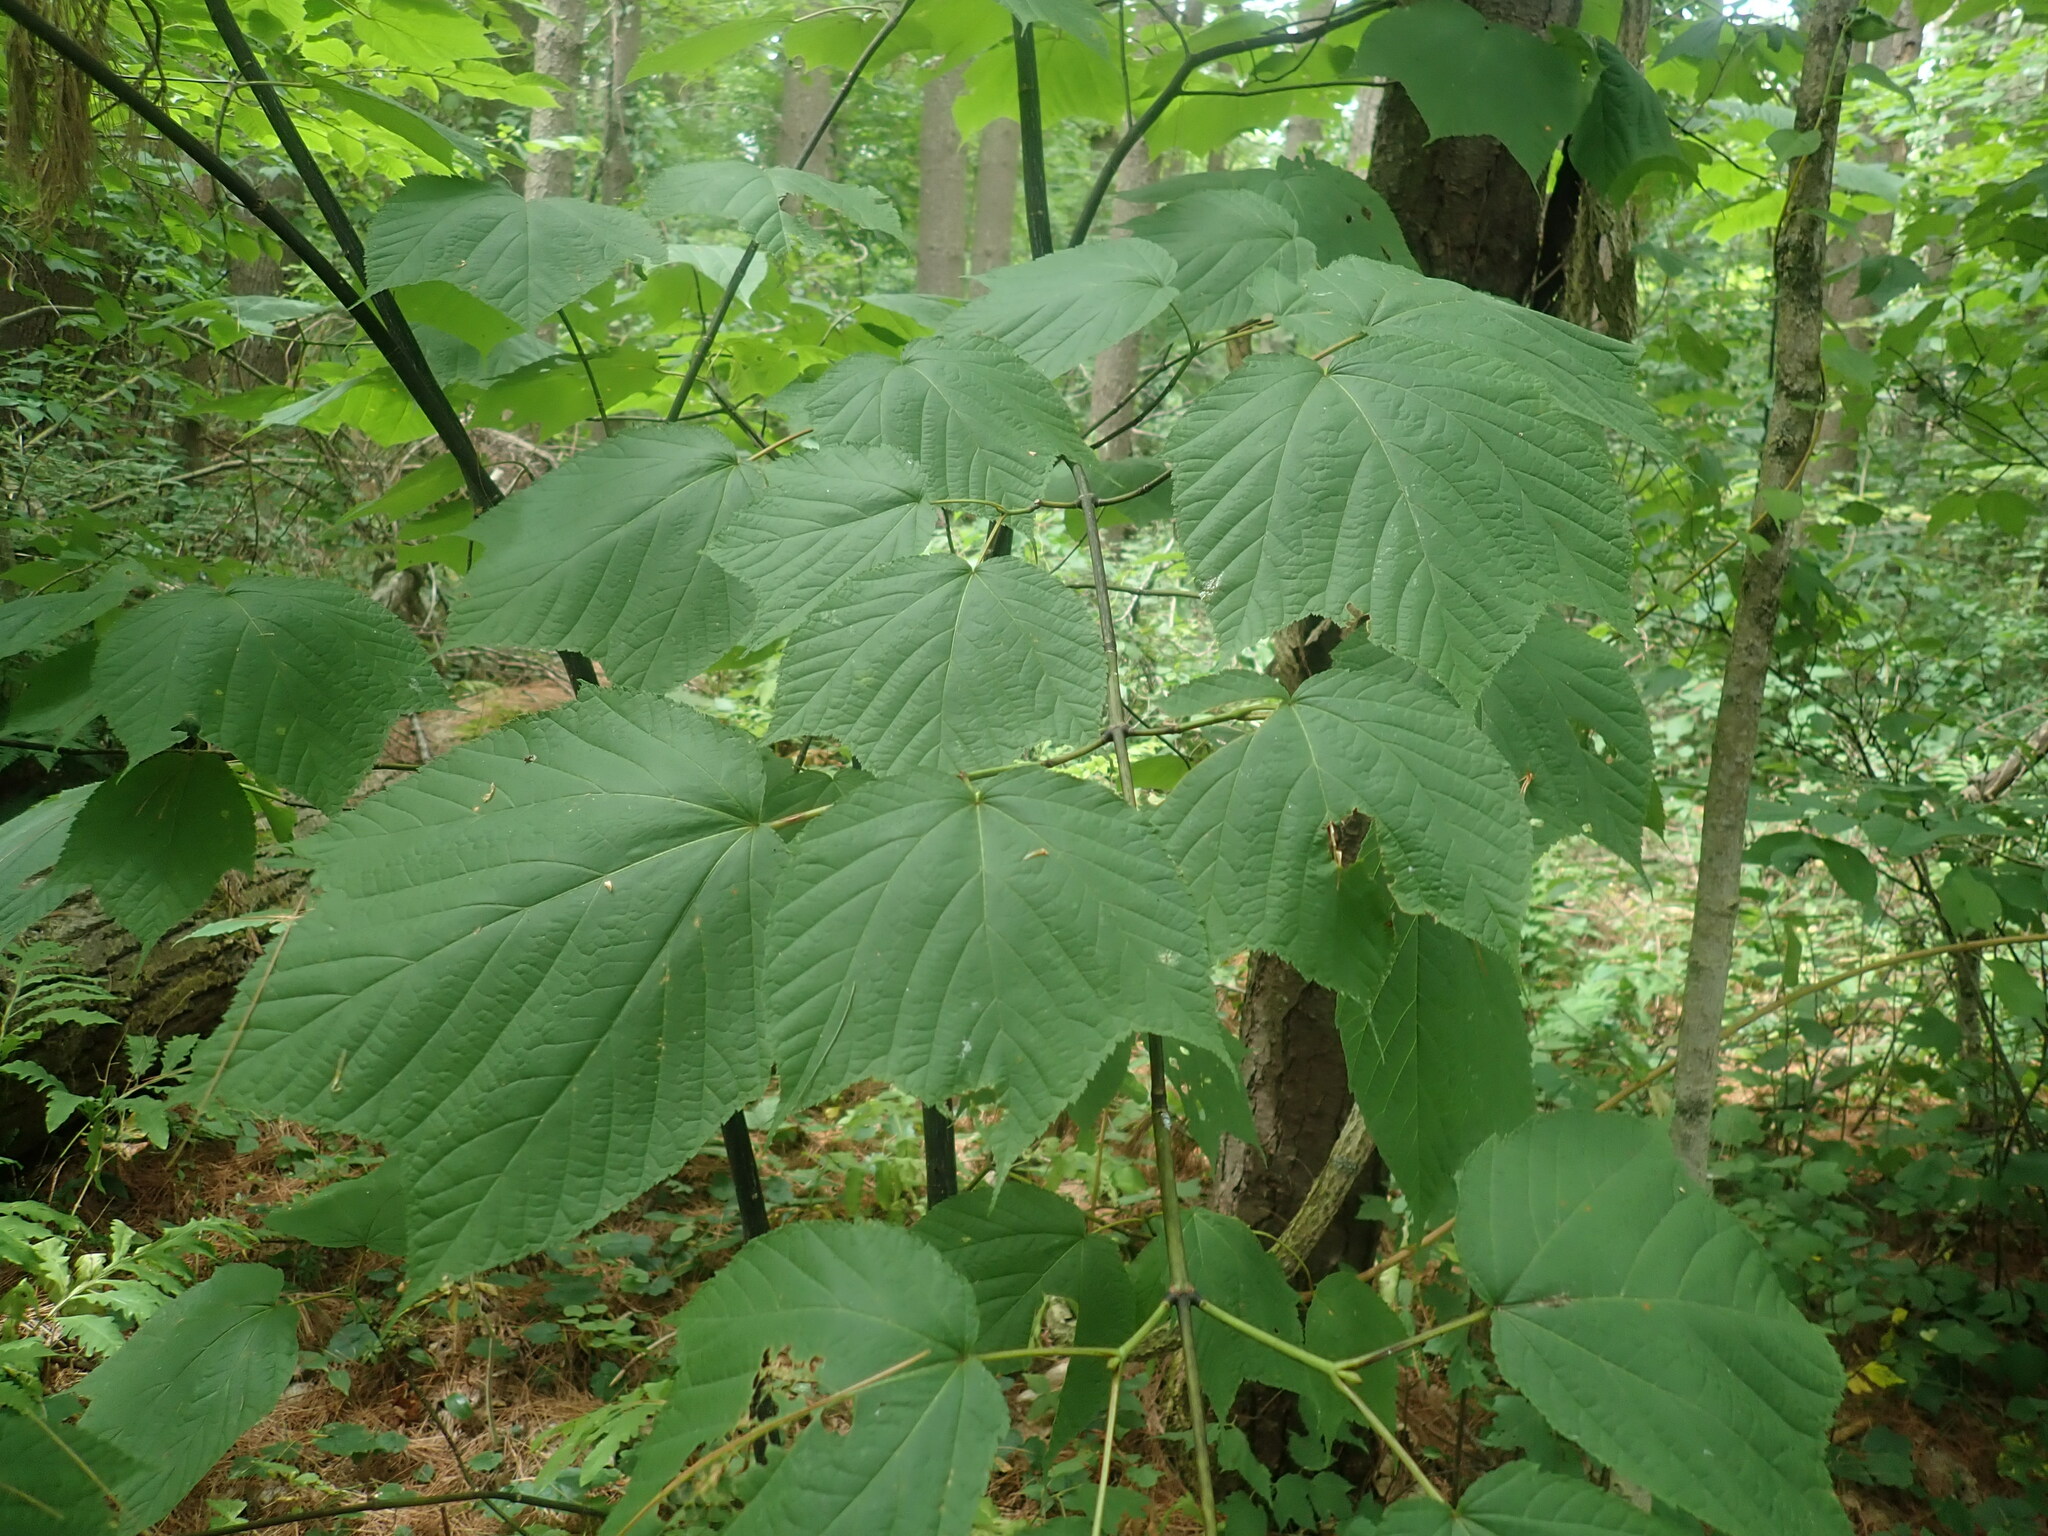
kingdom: Plantae
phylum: Tracheophyta
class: Magnoliopsida
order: Sapindales
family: Sapindaceae
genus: Acer
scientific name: Acer pensylvanicum
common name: Moosewood
